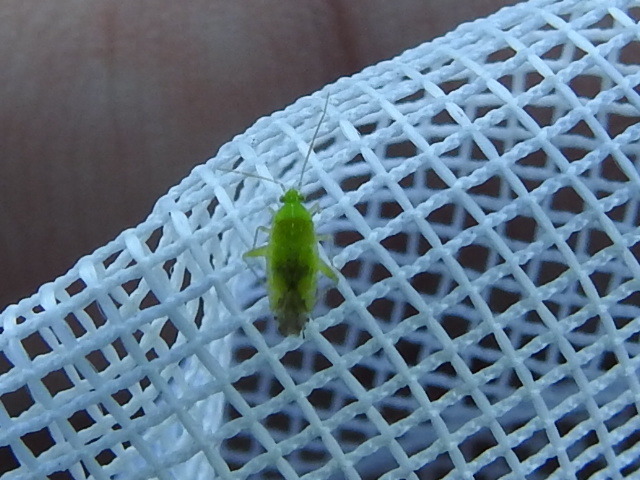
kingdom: Animalia
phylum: Arthropoda
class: Insecta
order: Hemiptera
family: Miridae
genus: Keltonia
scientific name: Keltonia tuckeri
